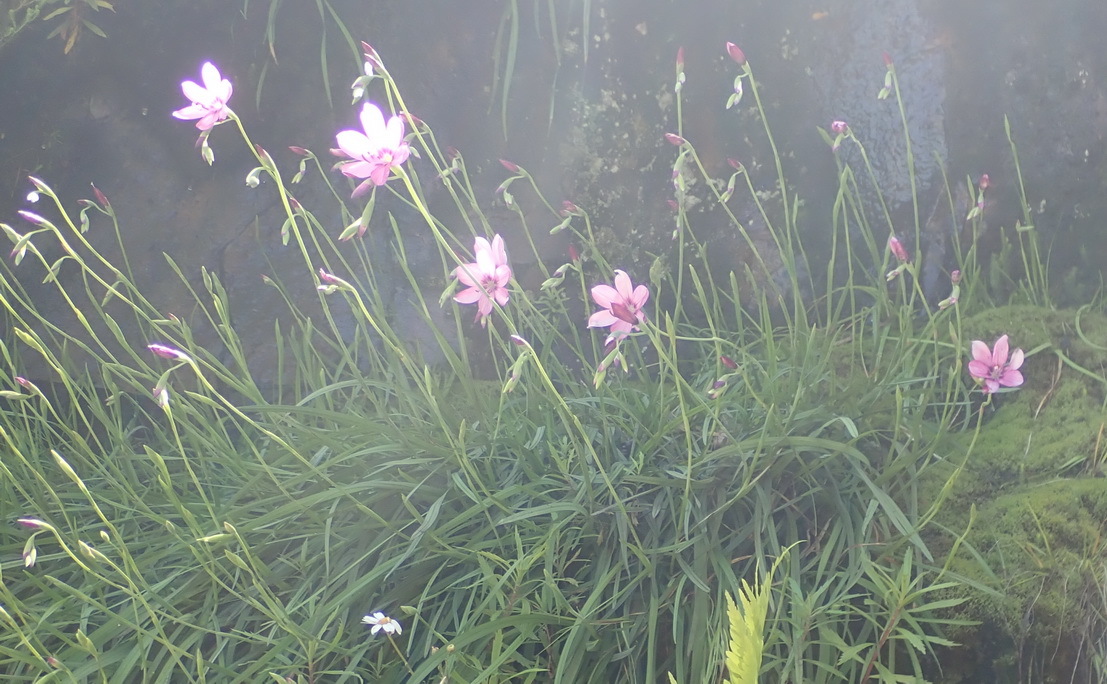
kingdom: Plantae
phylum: Tracheophyta
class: Liliopsida
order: Asparagales
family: Iridaceae
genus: Geissorhiza
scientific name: Geissorhiza outeniquensis
